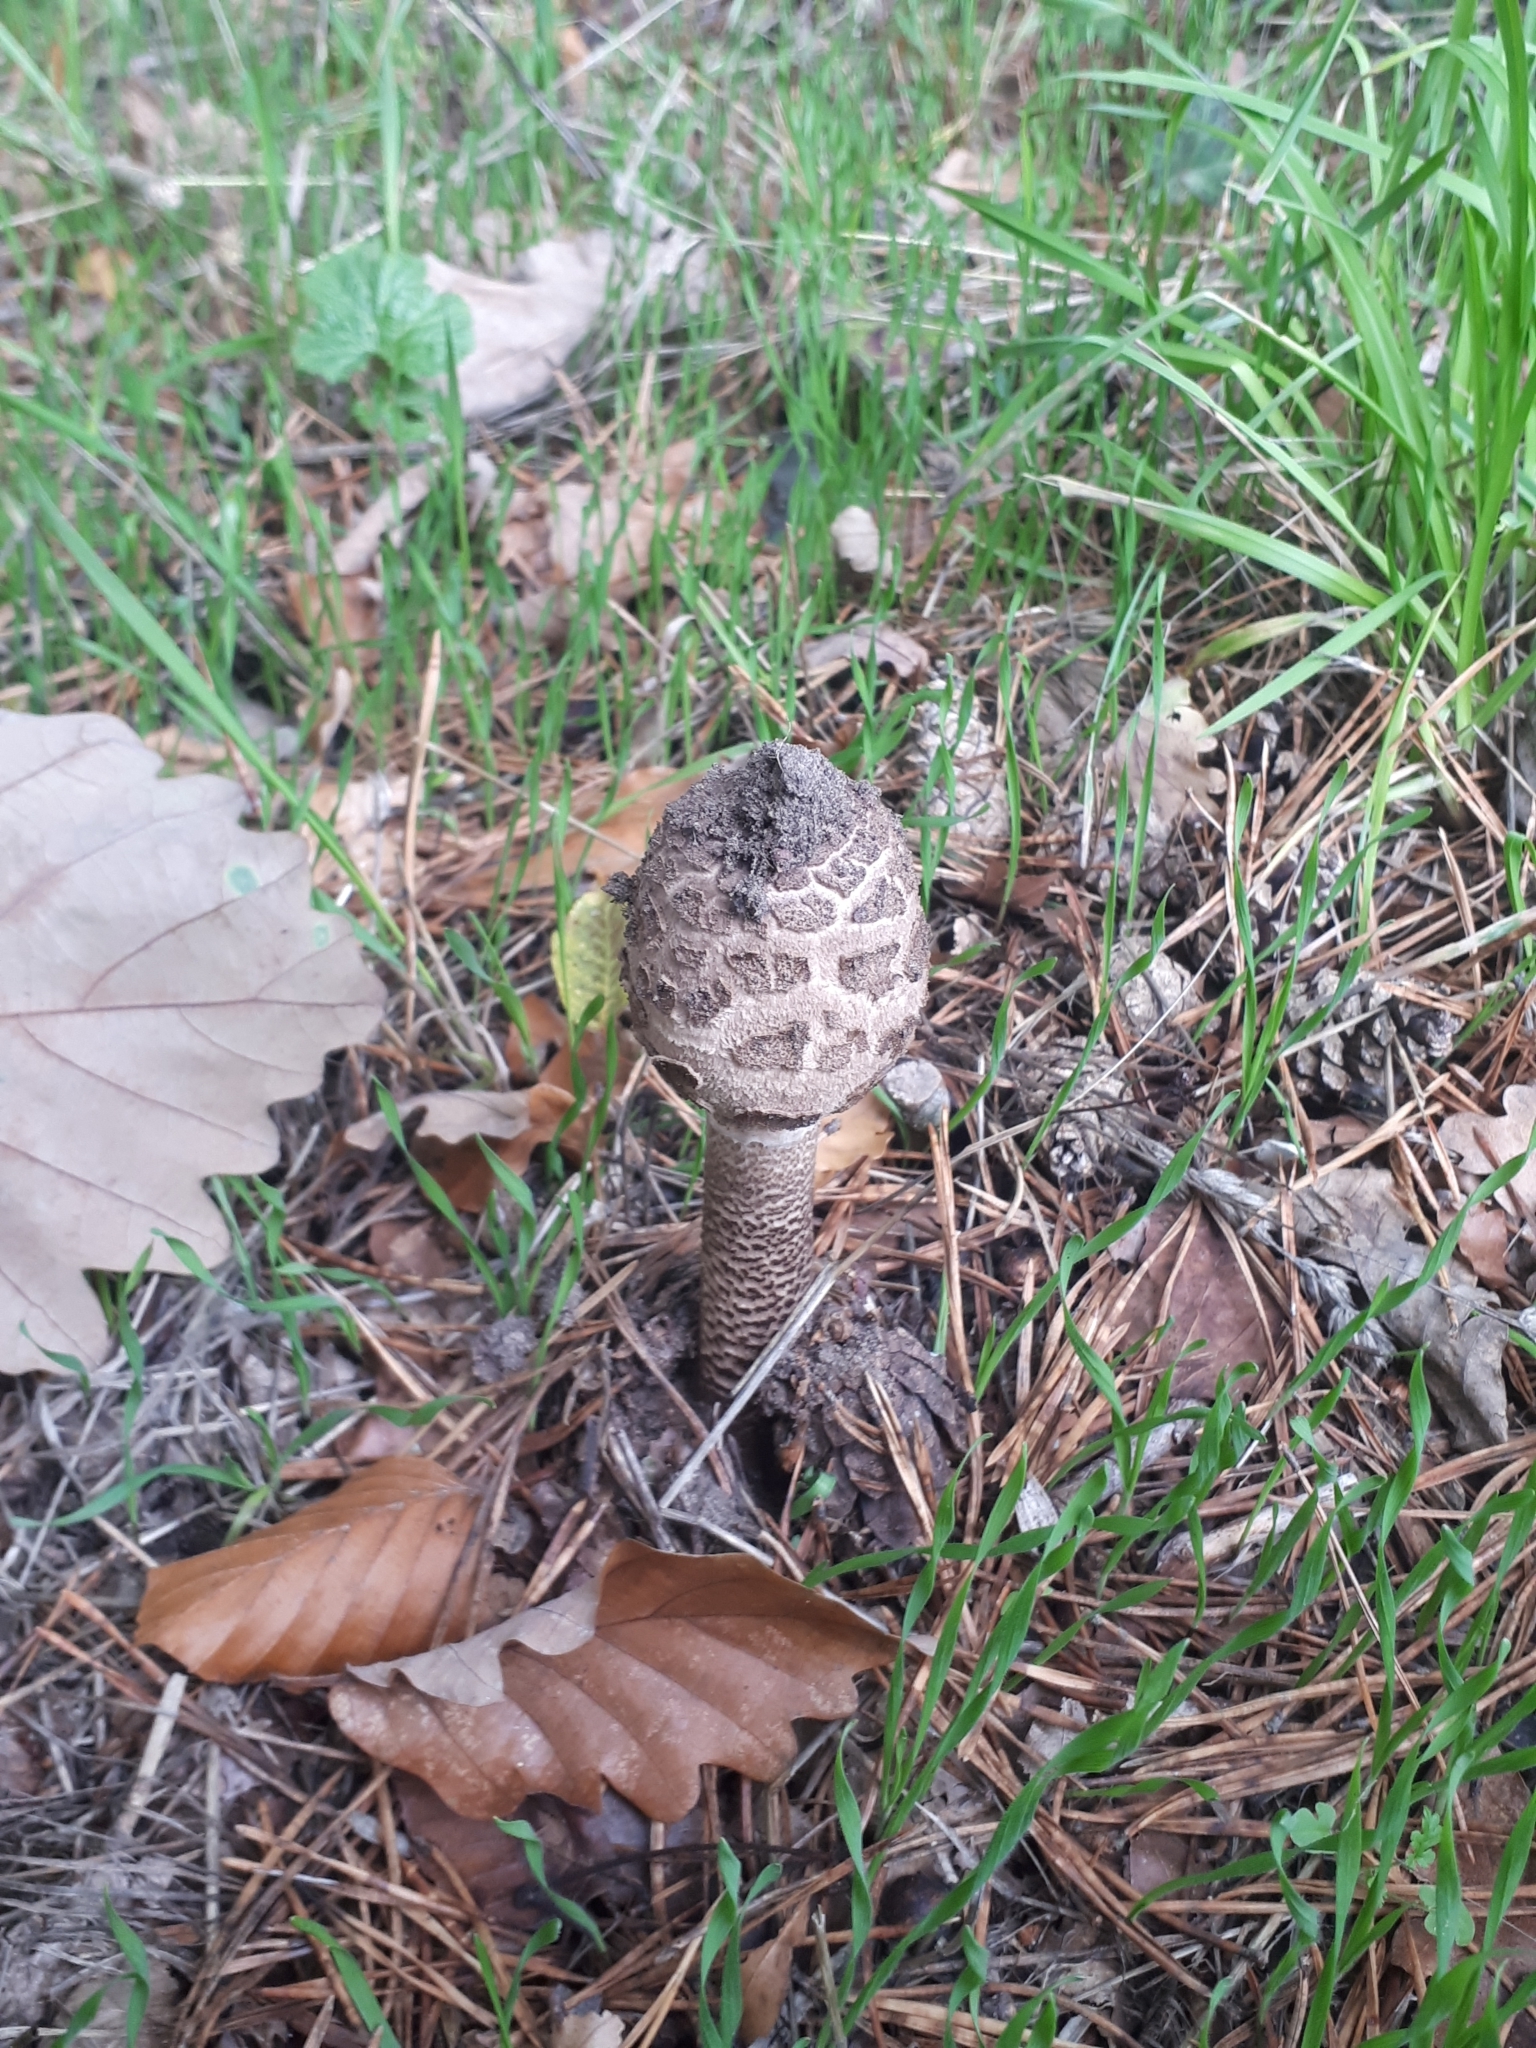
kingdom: Fungi
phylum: Basidiomycota
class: Agaricomycetes
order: Agaricales
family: Agaricaceae
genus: Macrolepiota
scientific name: Macrolepiota procera
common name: Parasol
